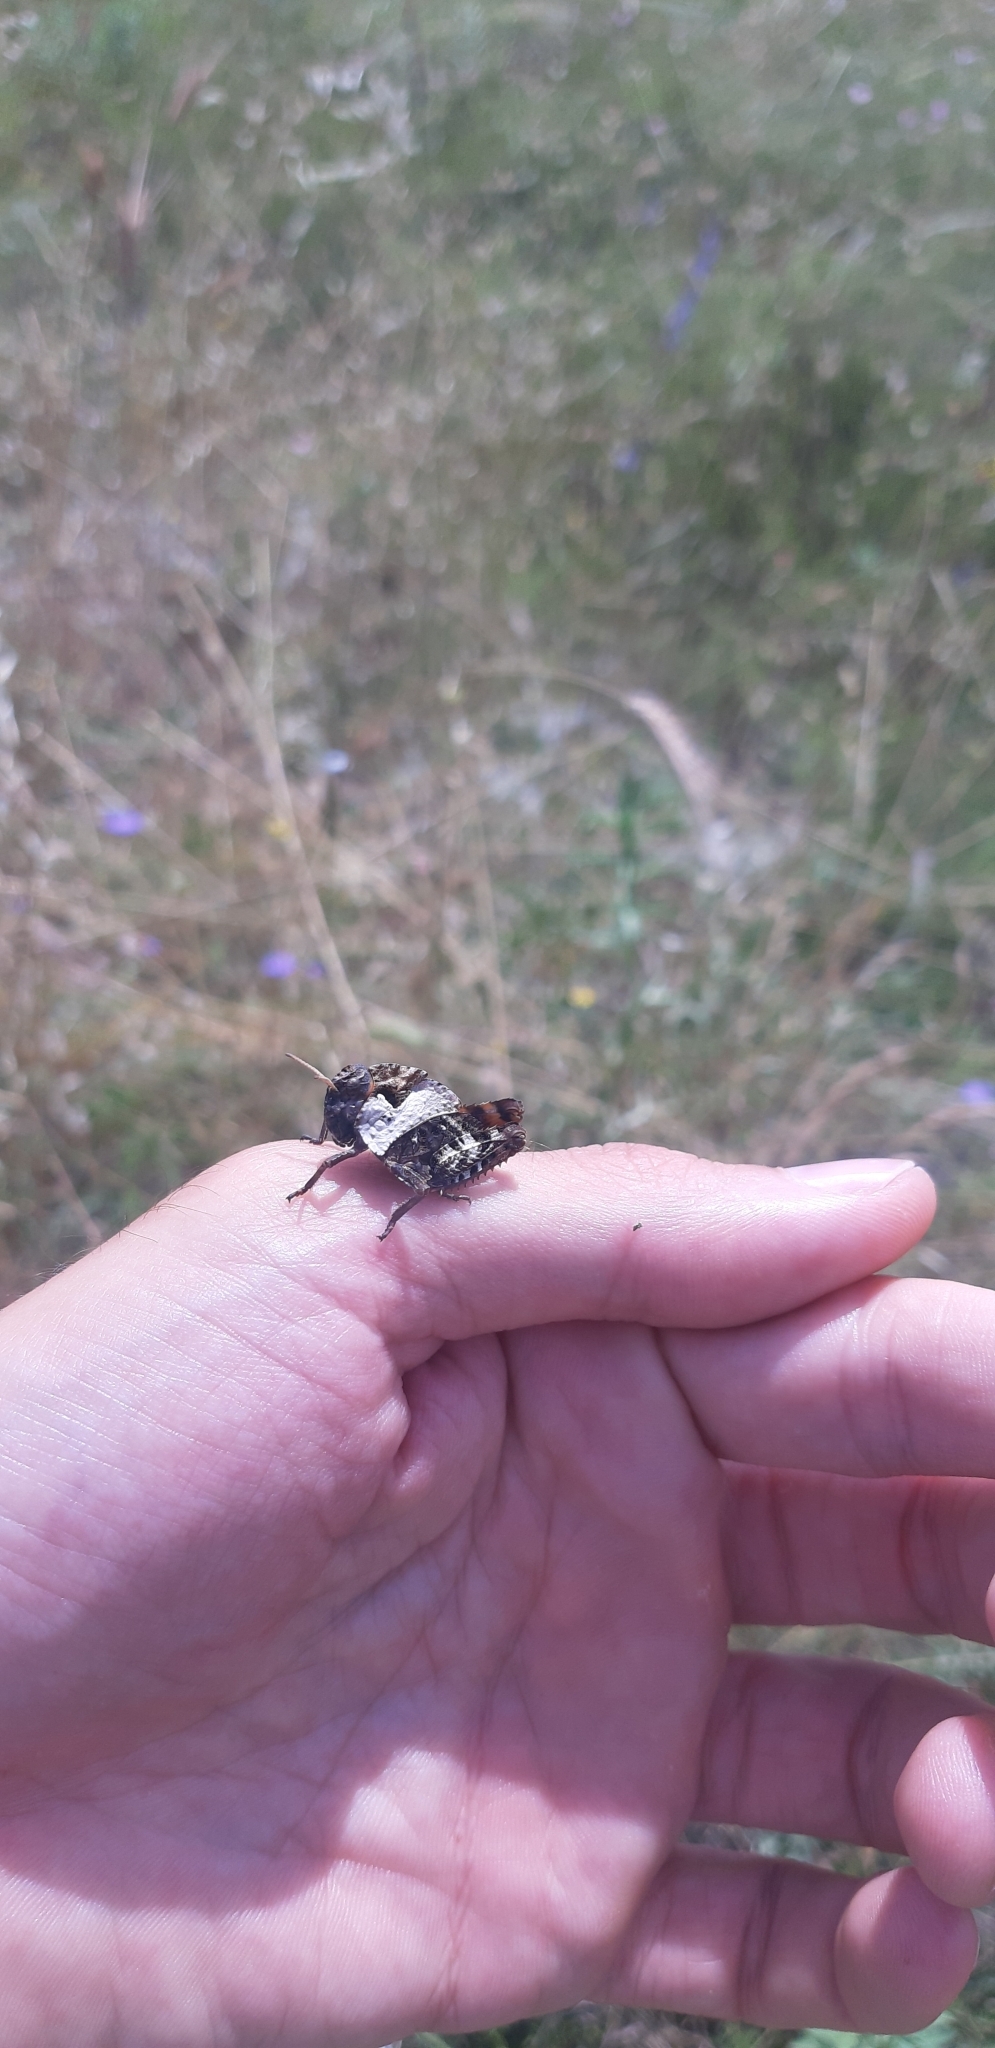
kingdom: Animalia
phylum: Arthropoda
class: Insecta
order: Orthoptera
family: Pamphagidae
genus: Prionotropis
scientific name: Prionotropis appula
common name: Apulian stone grasshopper
